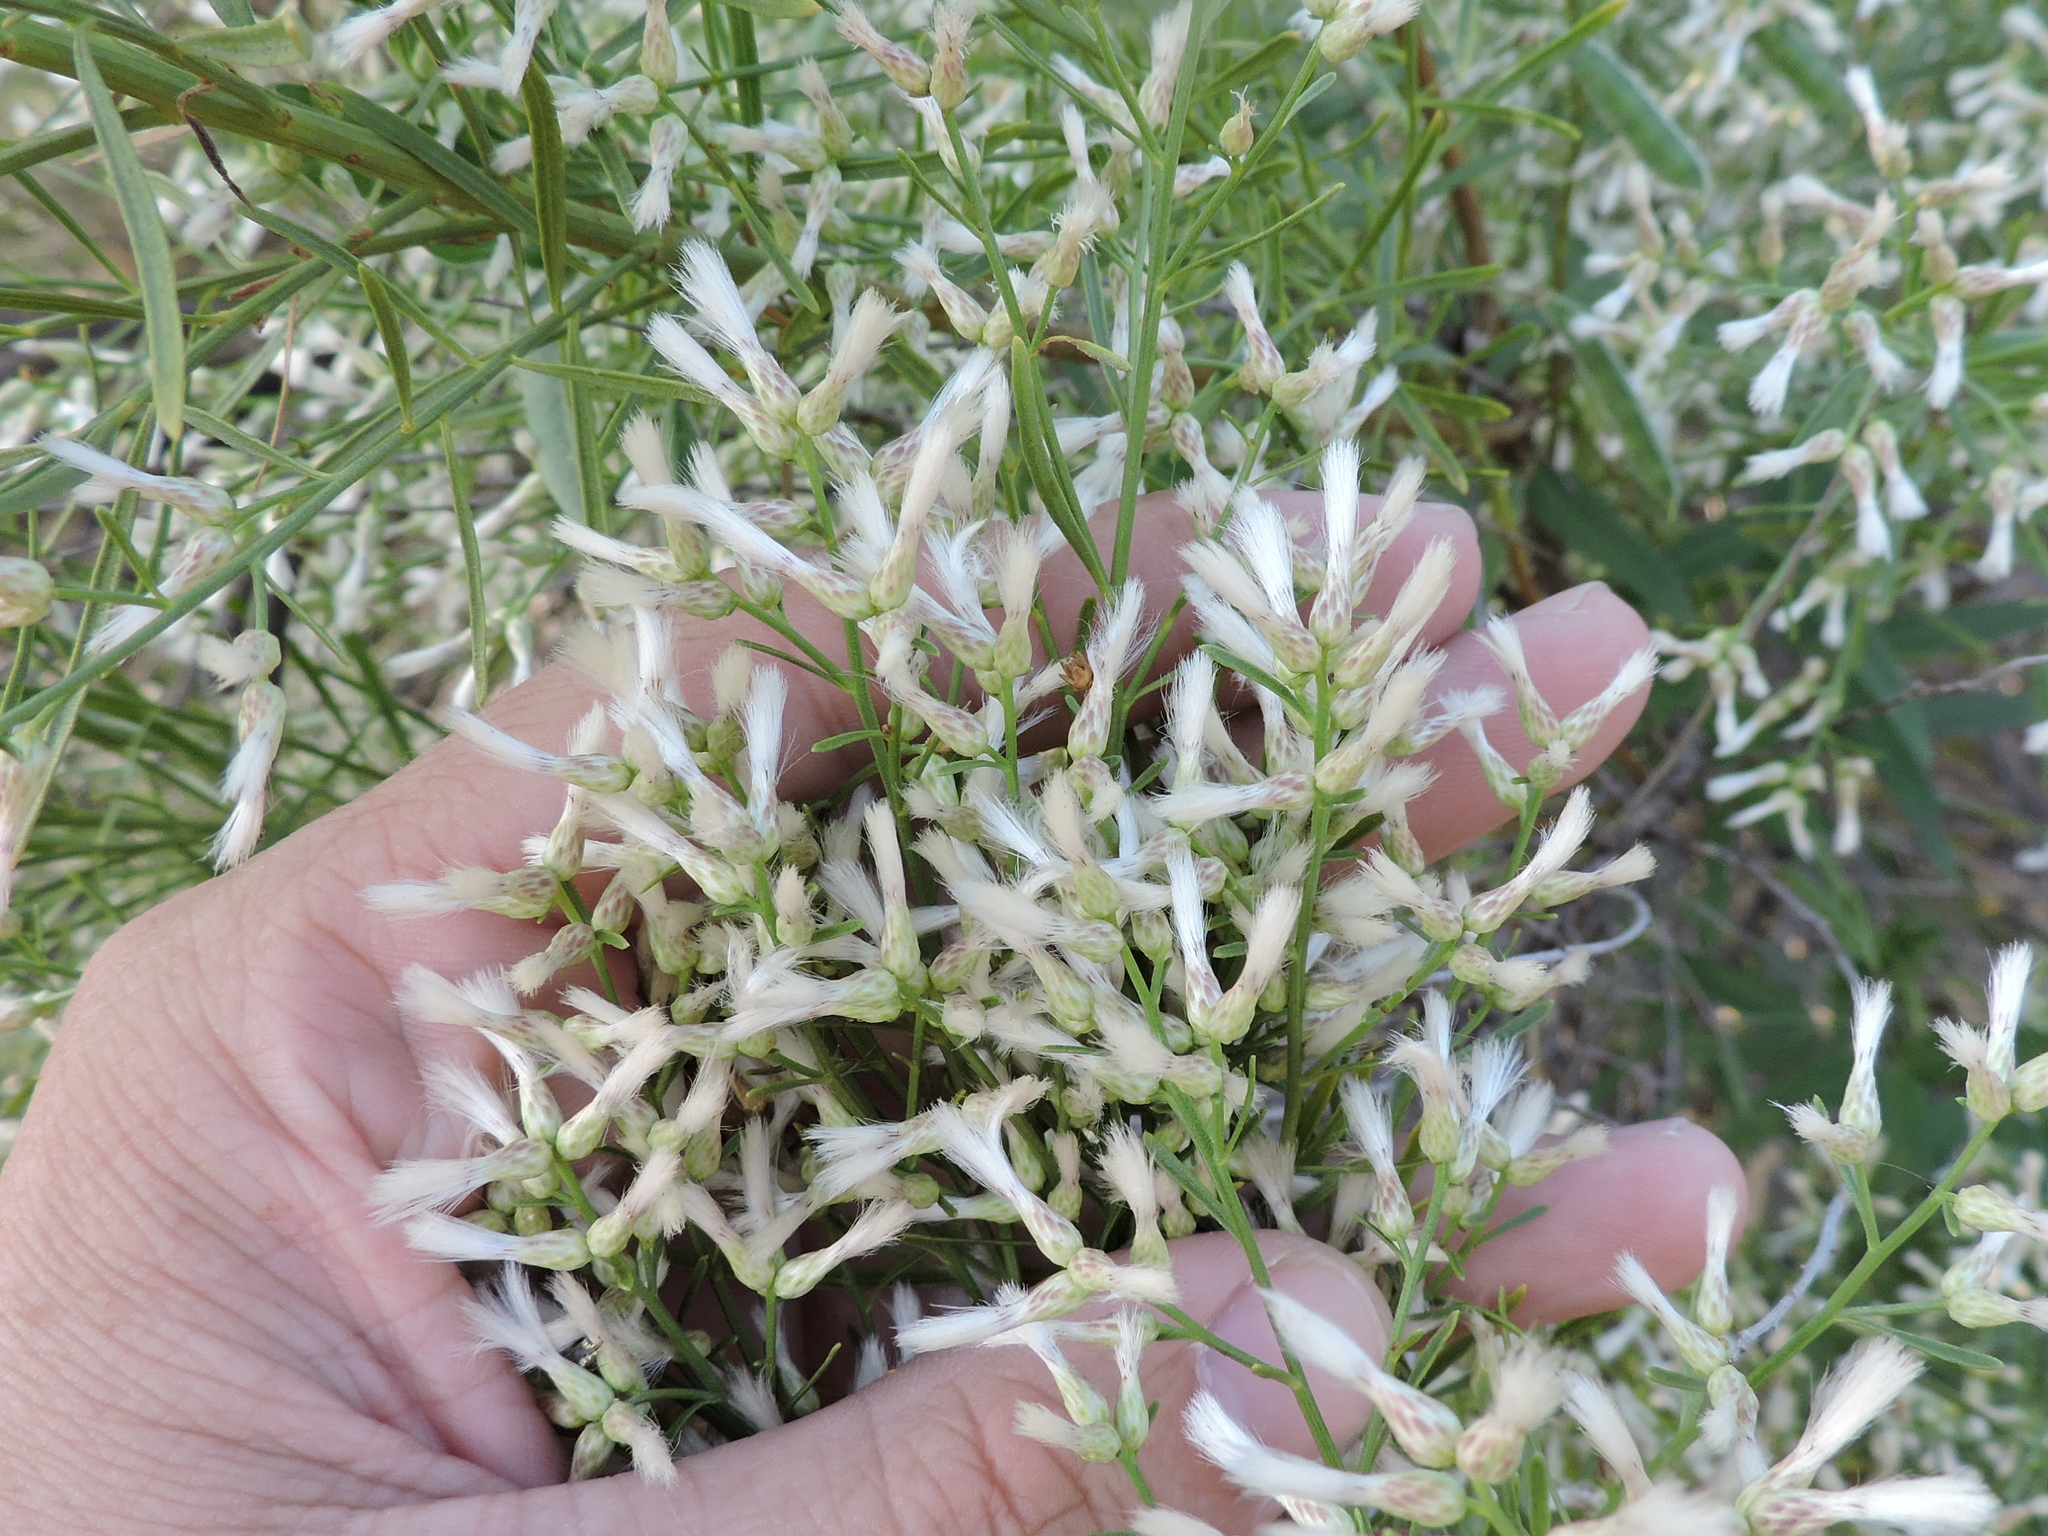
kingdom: Plantae
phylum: Tracheophyta
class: Magnoliopsida
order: Asterales
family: Asteraceae
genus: Baccharis
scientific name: Baccharis neglecta
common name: Roosevelt-weed
